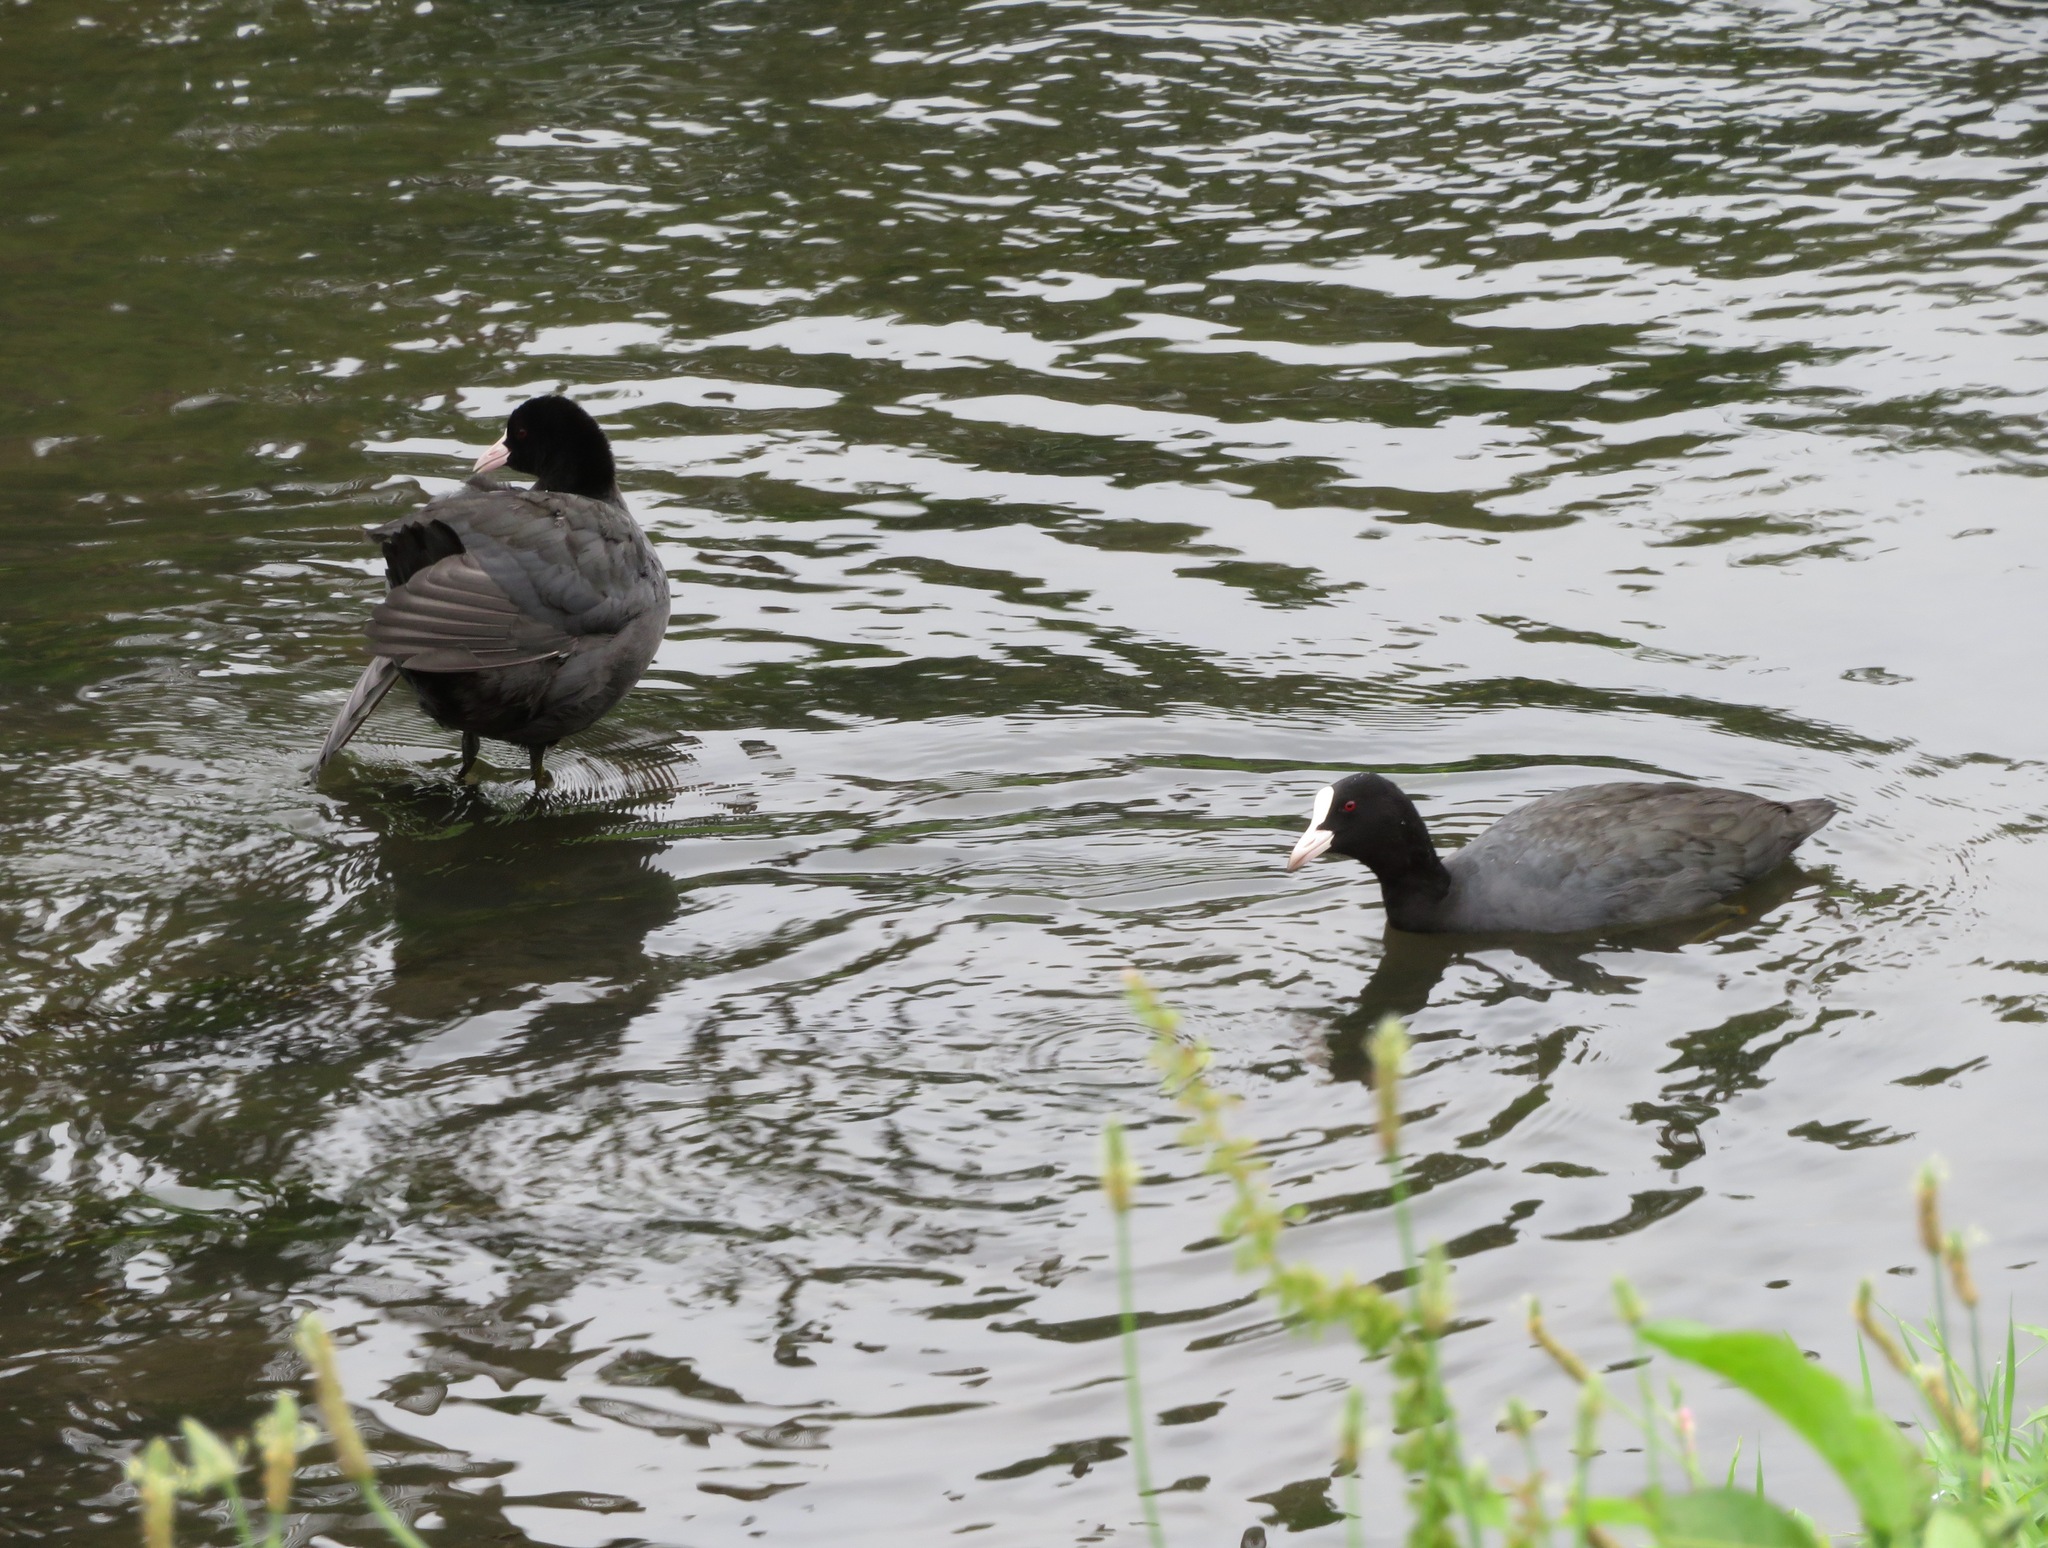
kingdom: Animalia
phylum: Chordata
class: Aves
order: Gruiformes
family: Rallidae
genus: Fulica
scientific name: Fulica atra
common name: Eurasian coot
